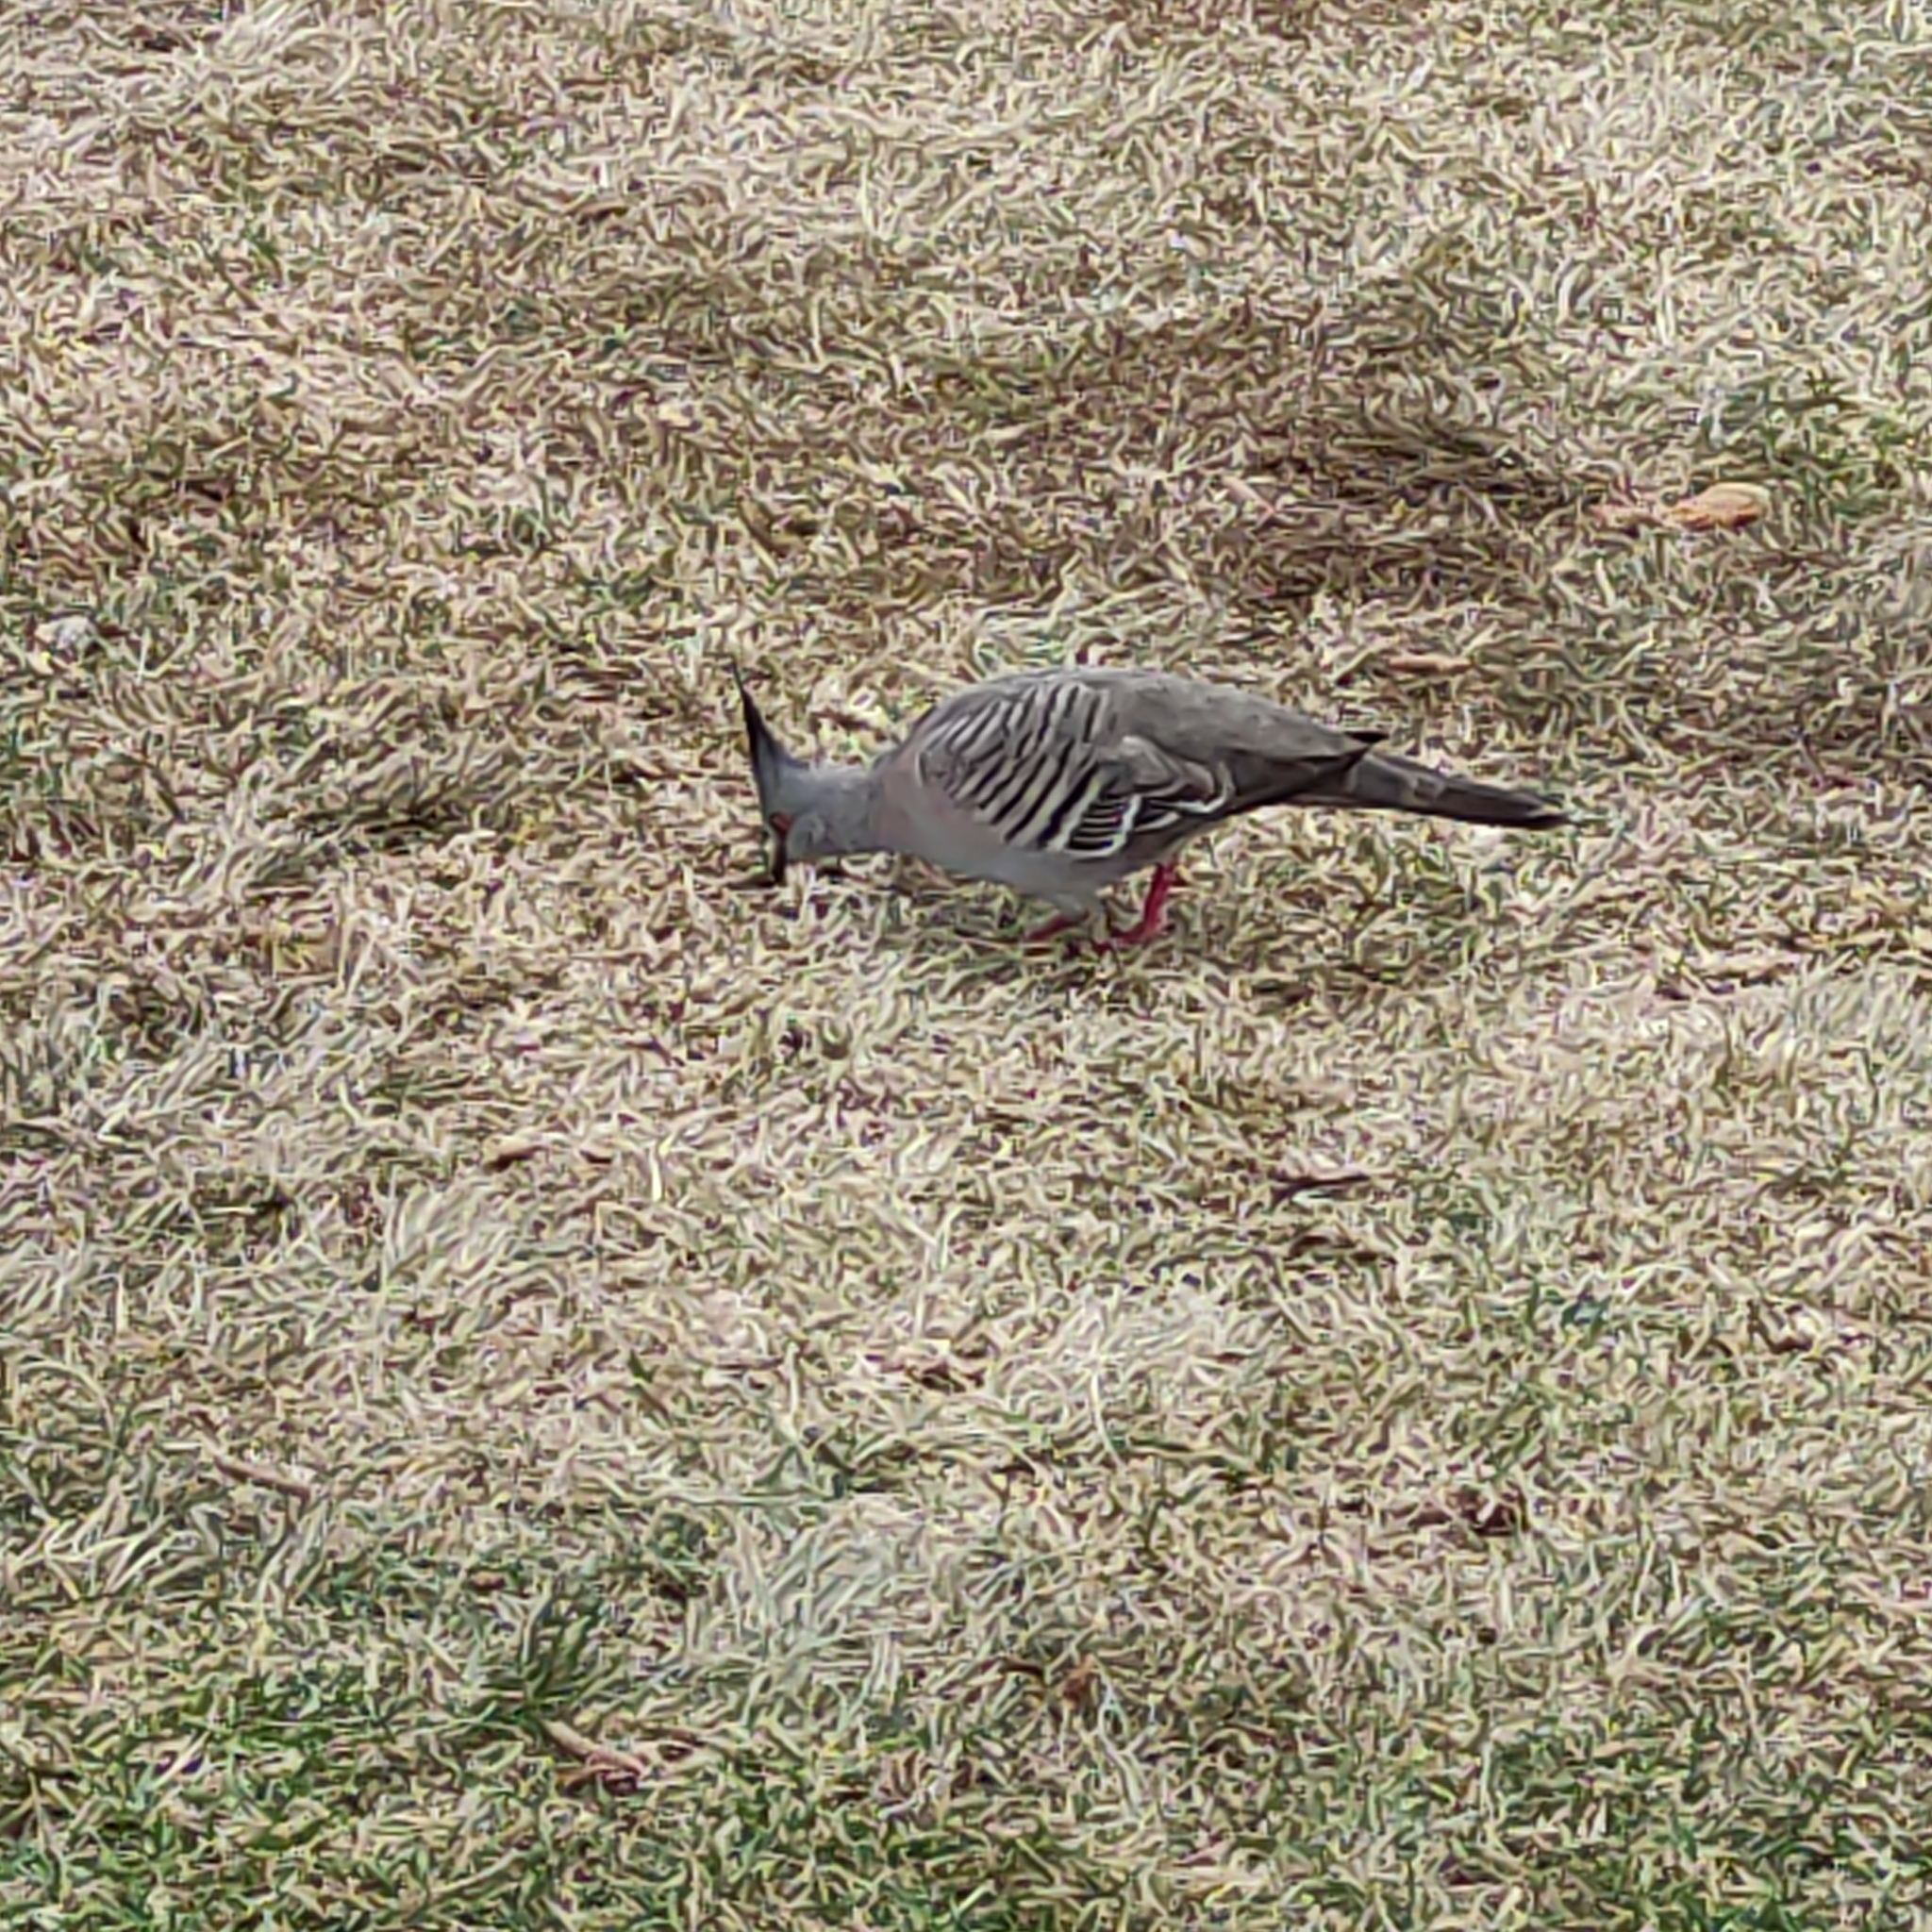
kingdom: Animalia
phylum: Chordata
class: Aves
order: Columbiformes
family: Columbidae
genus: Ocyphaps
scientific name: Ocyphaps lophotes
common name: Crested pigeon
